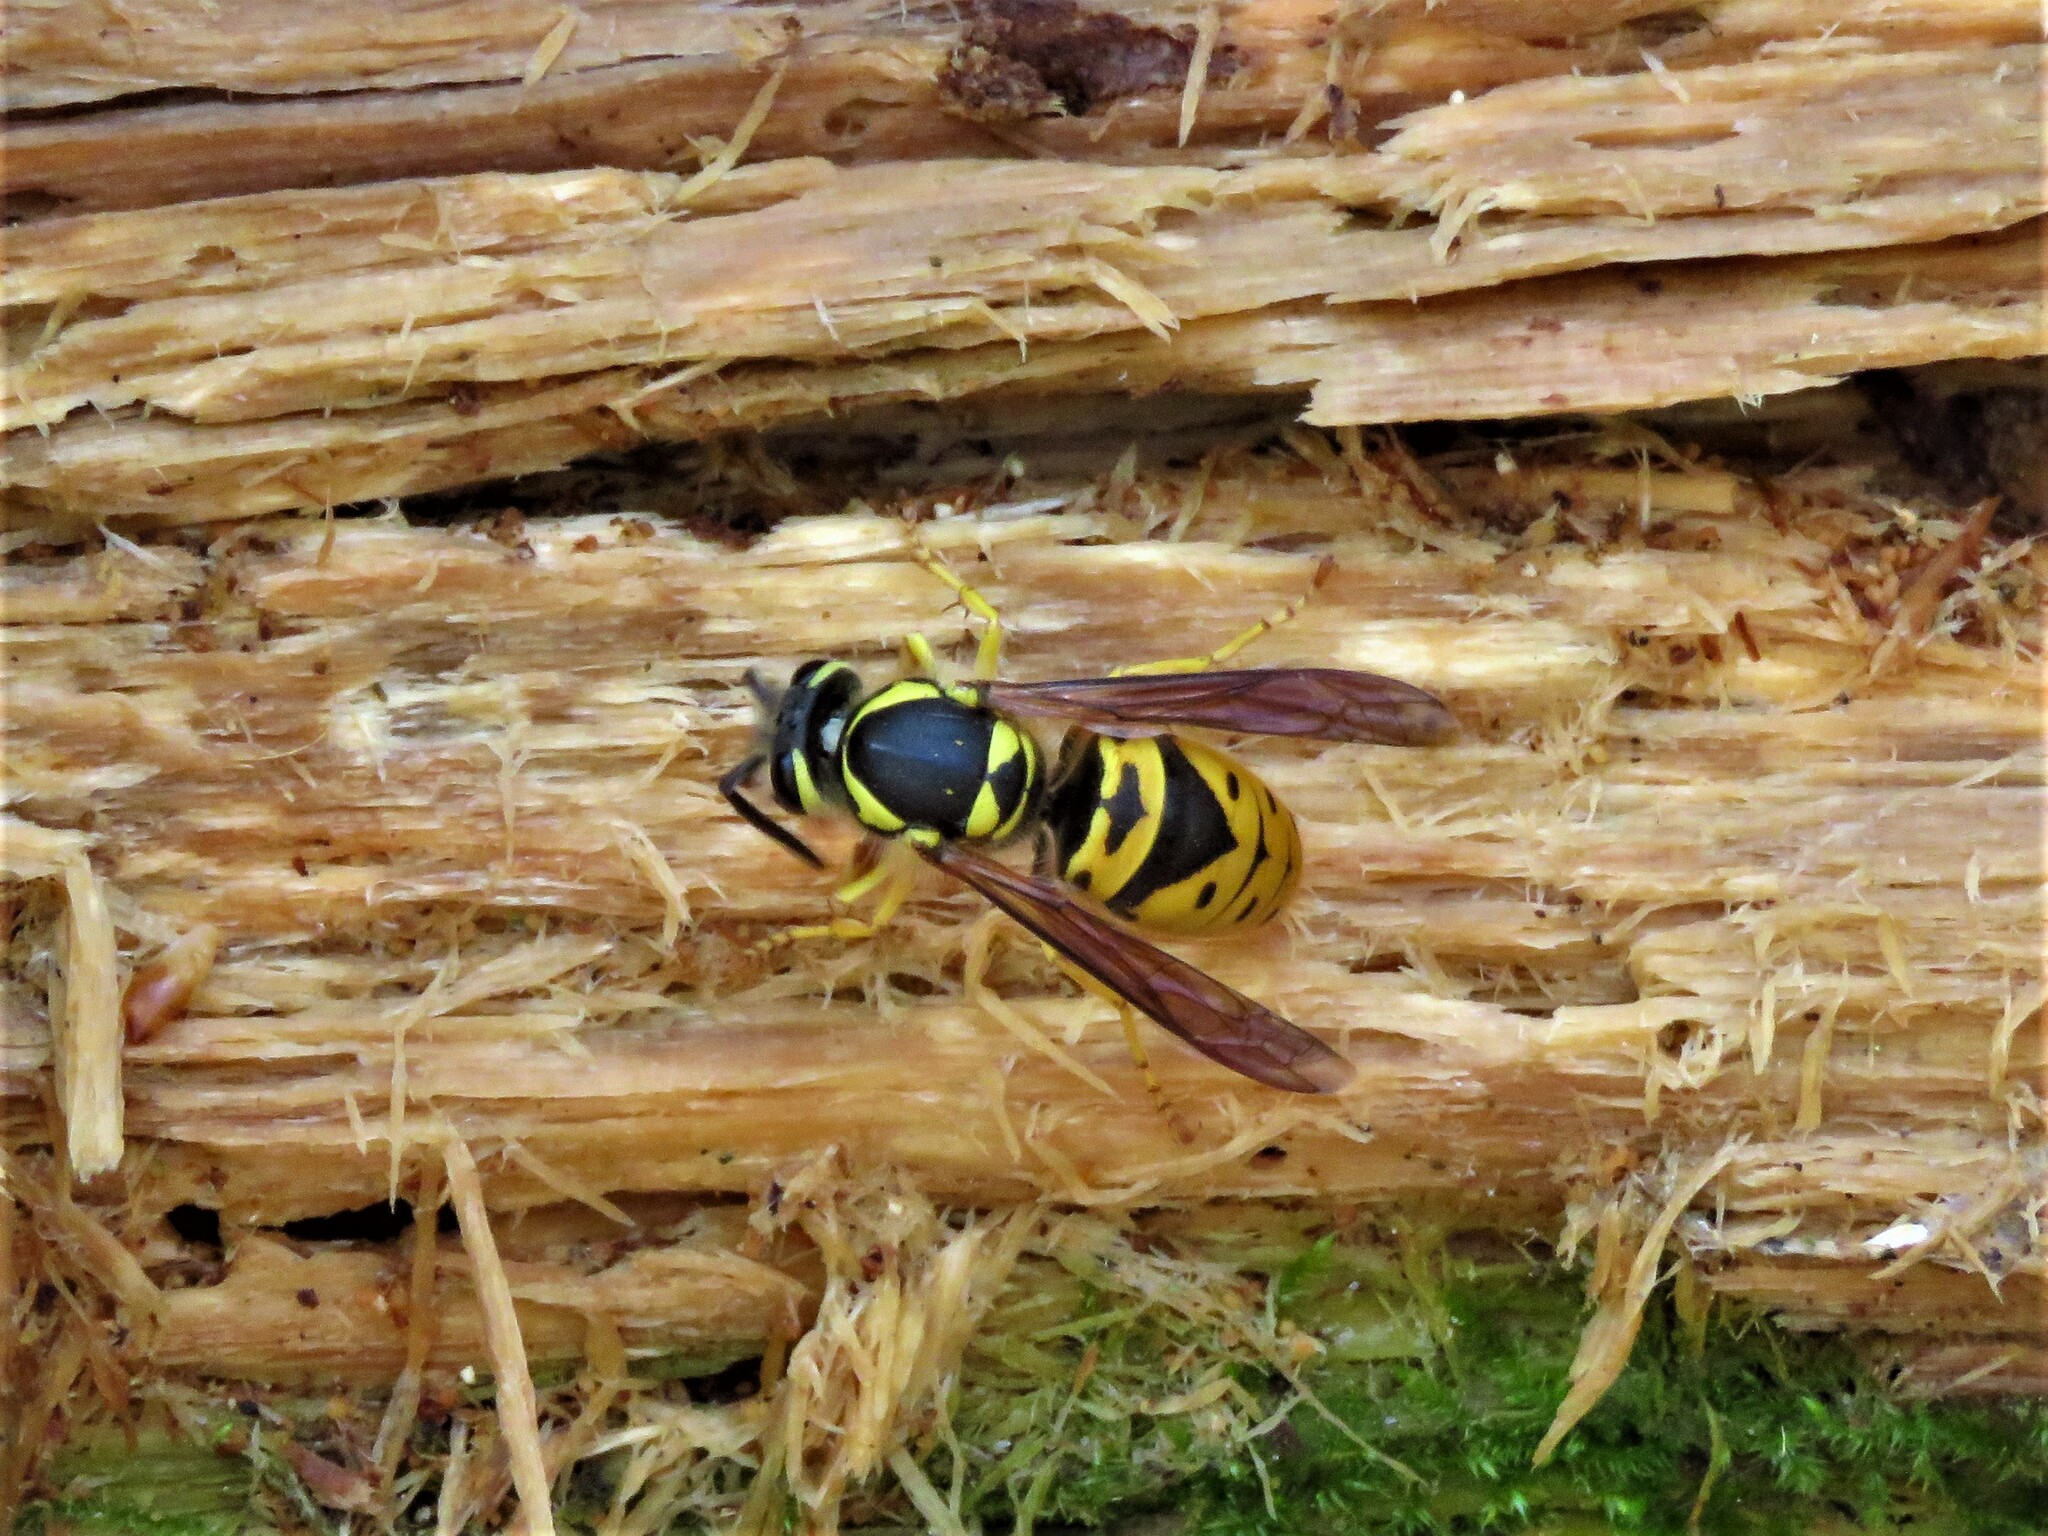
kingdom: Animalia
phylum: Arthropoda
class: Insecta
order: Hymenoptera
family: Vespidae
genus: Vespula
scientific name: Vespula maculifrons
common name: Eastern yellowjacket
